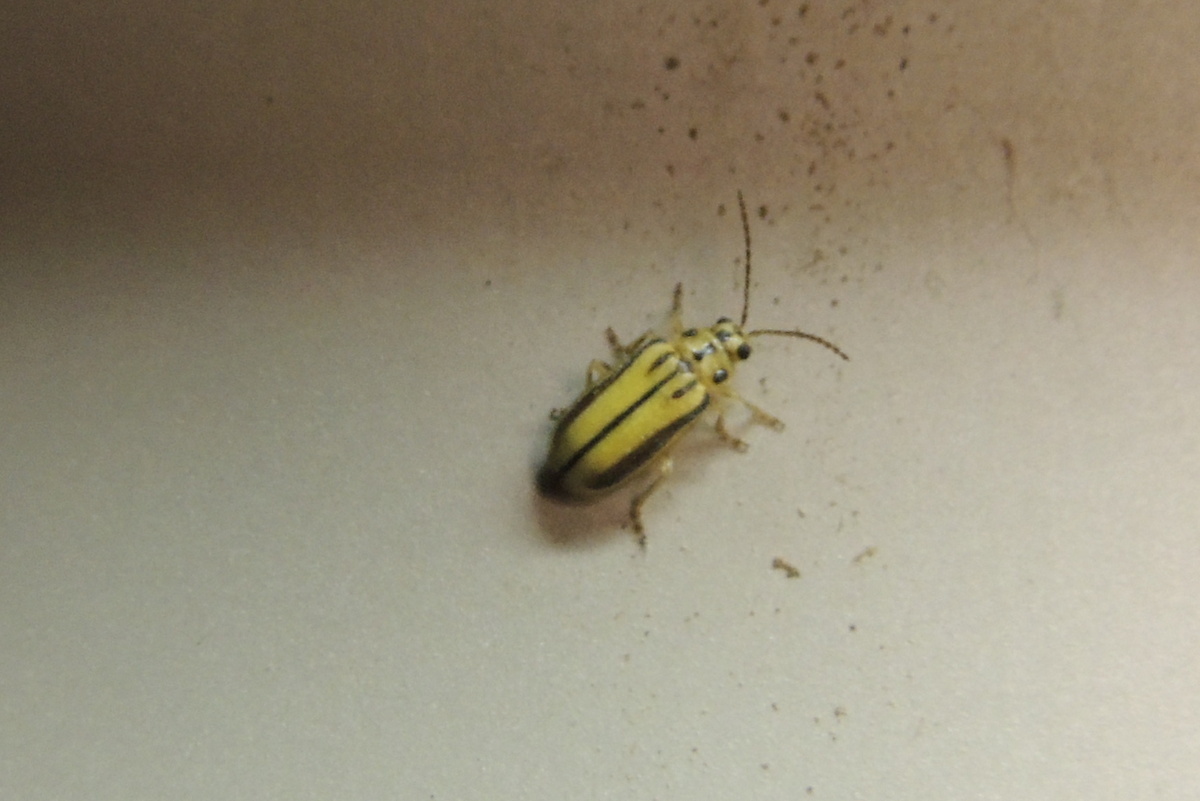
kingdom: Animalia
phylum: Arthropoda
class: Insecta
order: Coleoptera
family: Chrysomelidae
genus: Xanthogaleruca
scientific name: Xanthogaleruca luteola
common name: Elm leaf beetle
